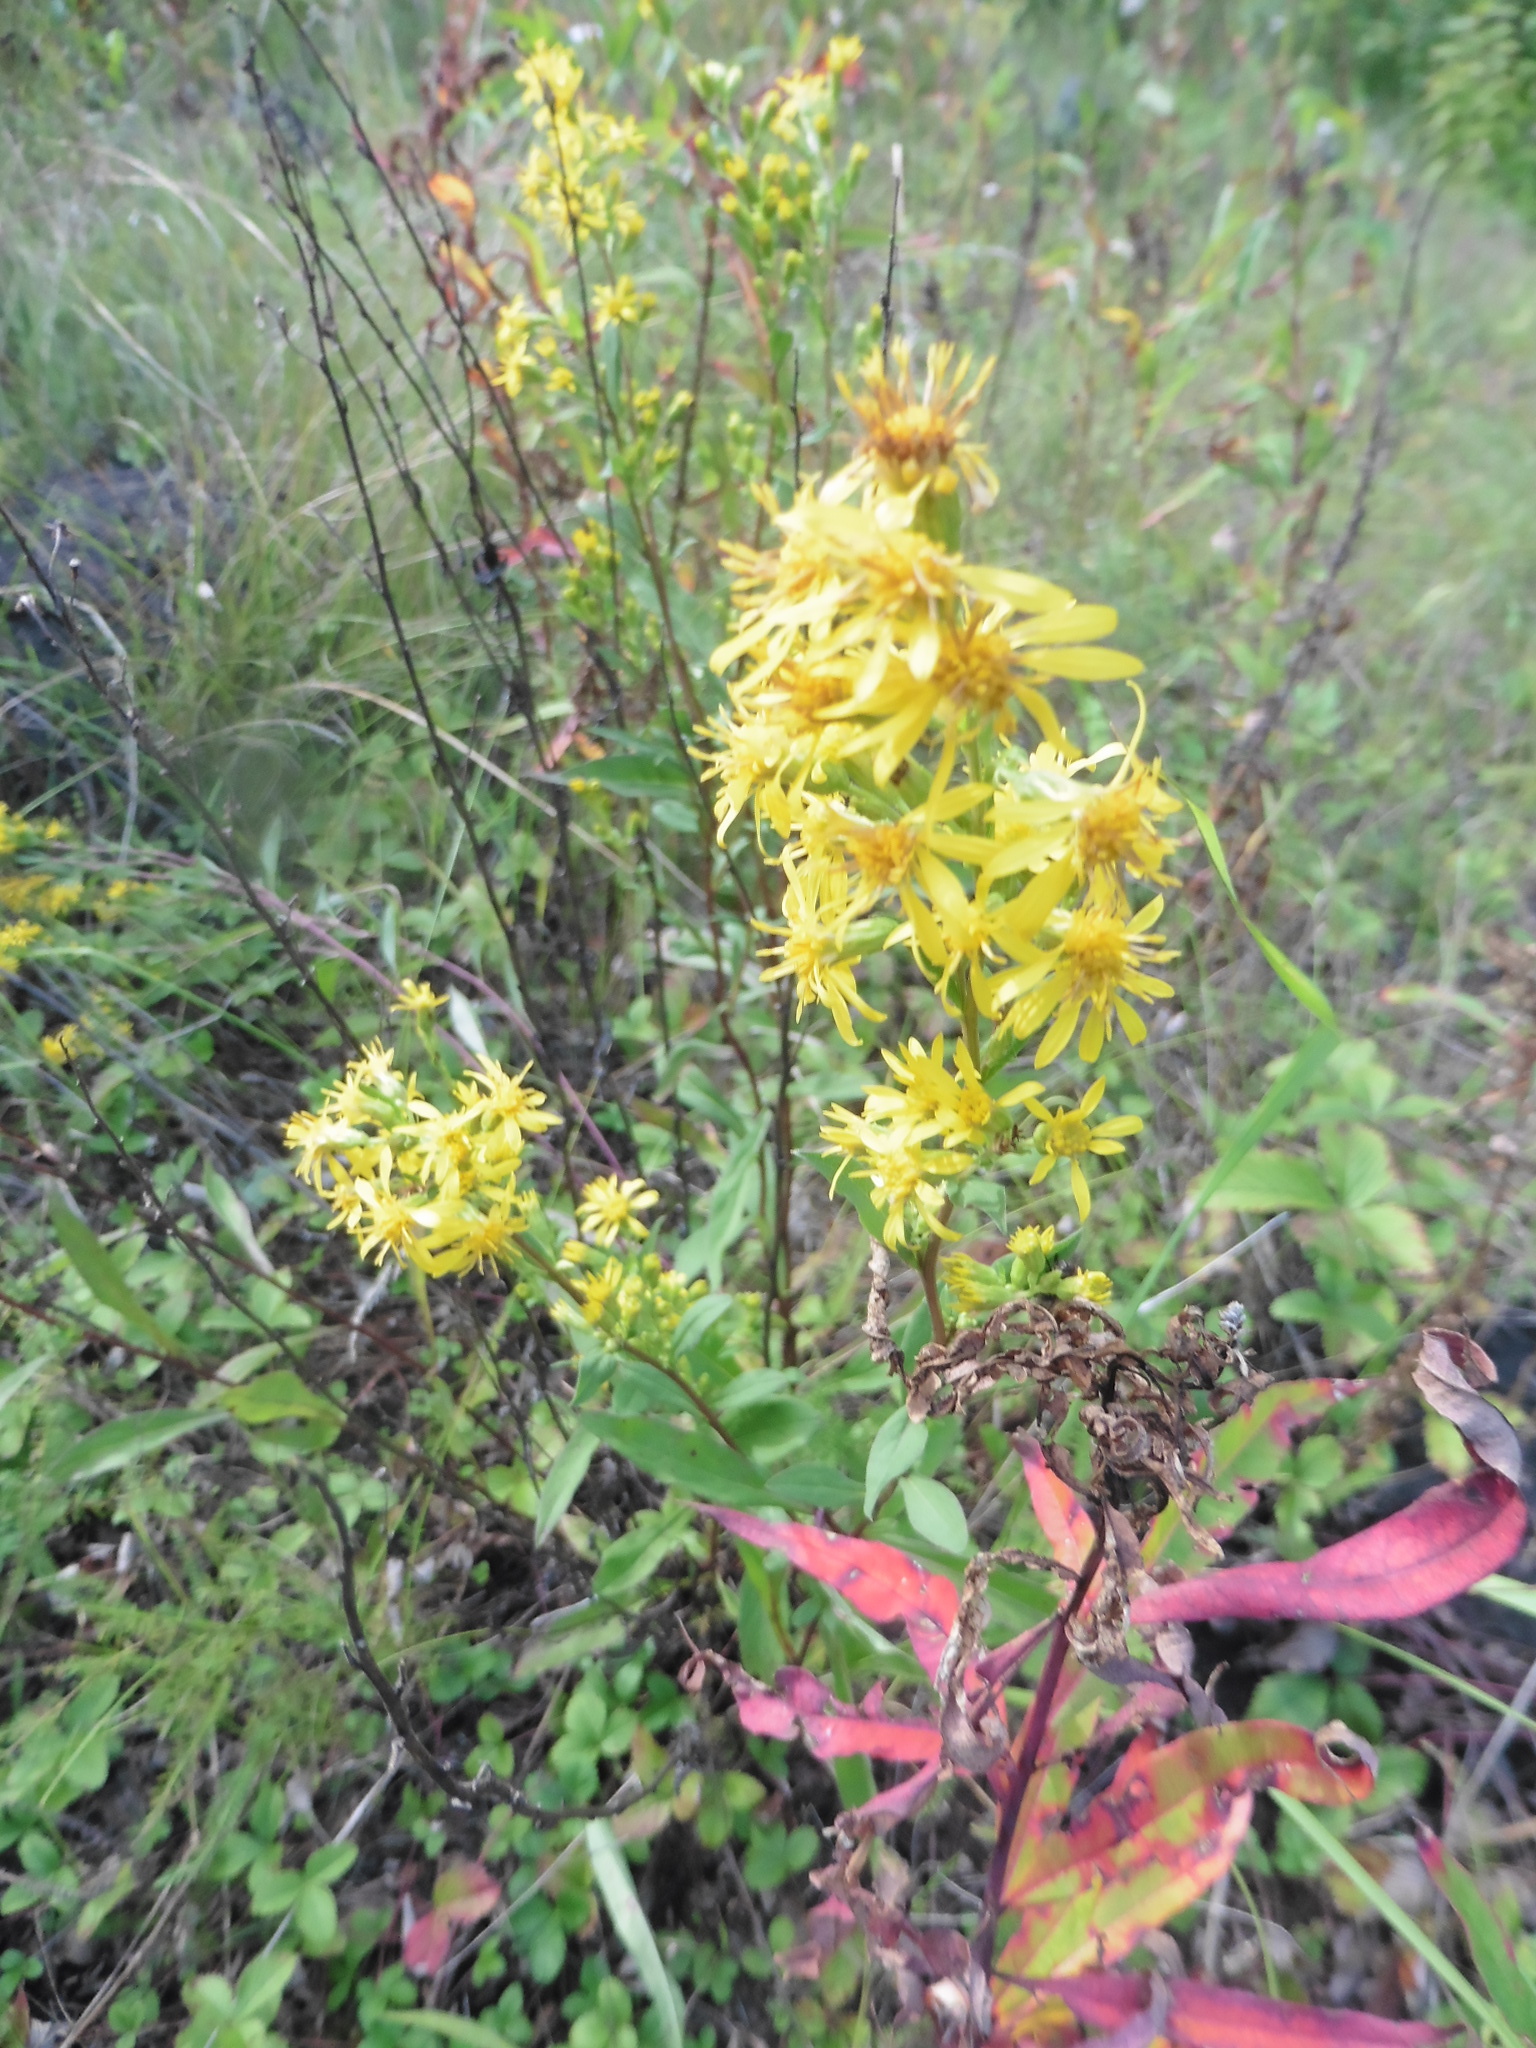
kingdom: Plantae
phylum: Tracheophyta
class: Magnoliopsida
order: Asterales
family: Asteraceae
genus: Solidago
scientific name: Solidago virgaurea
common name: Goldenrod
